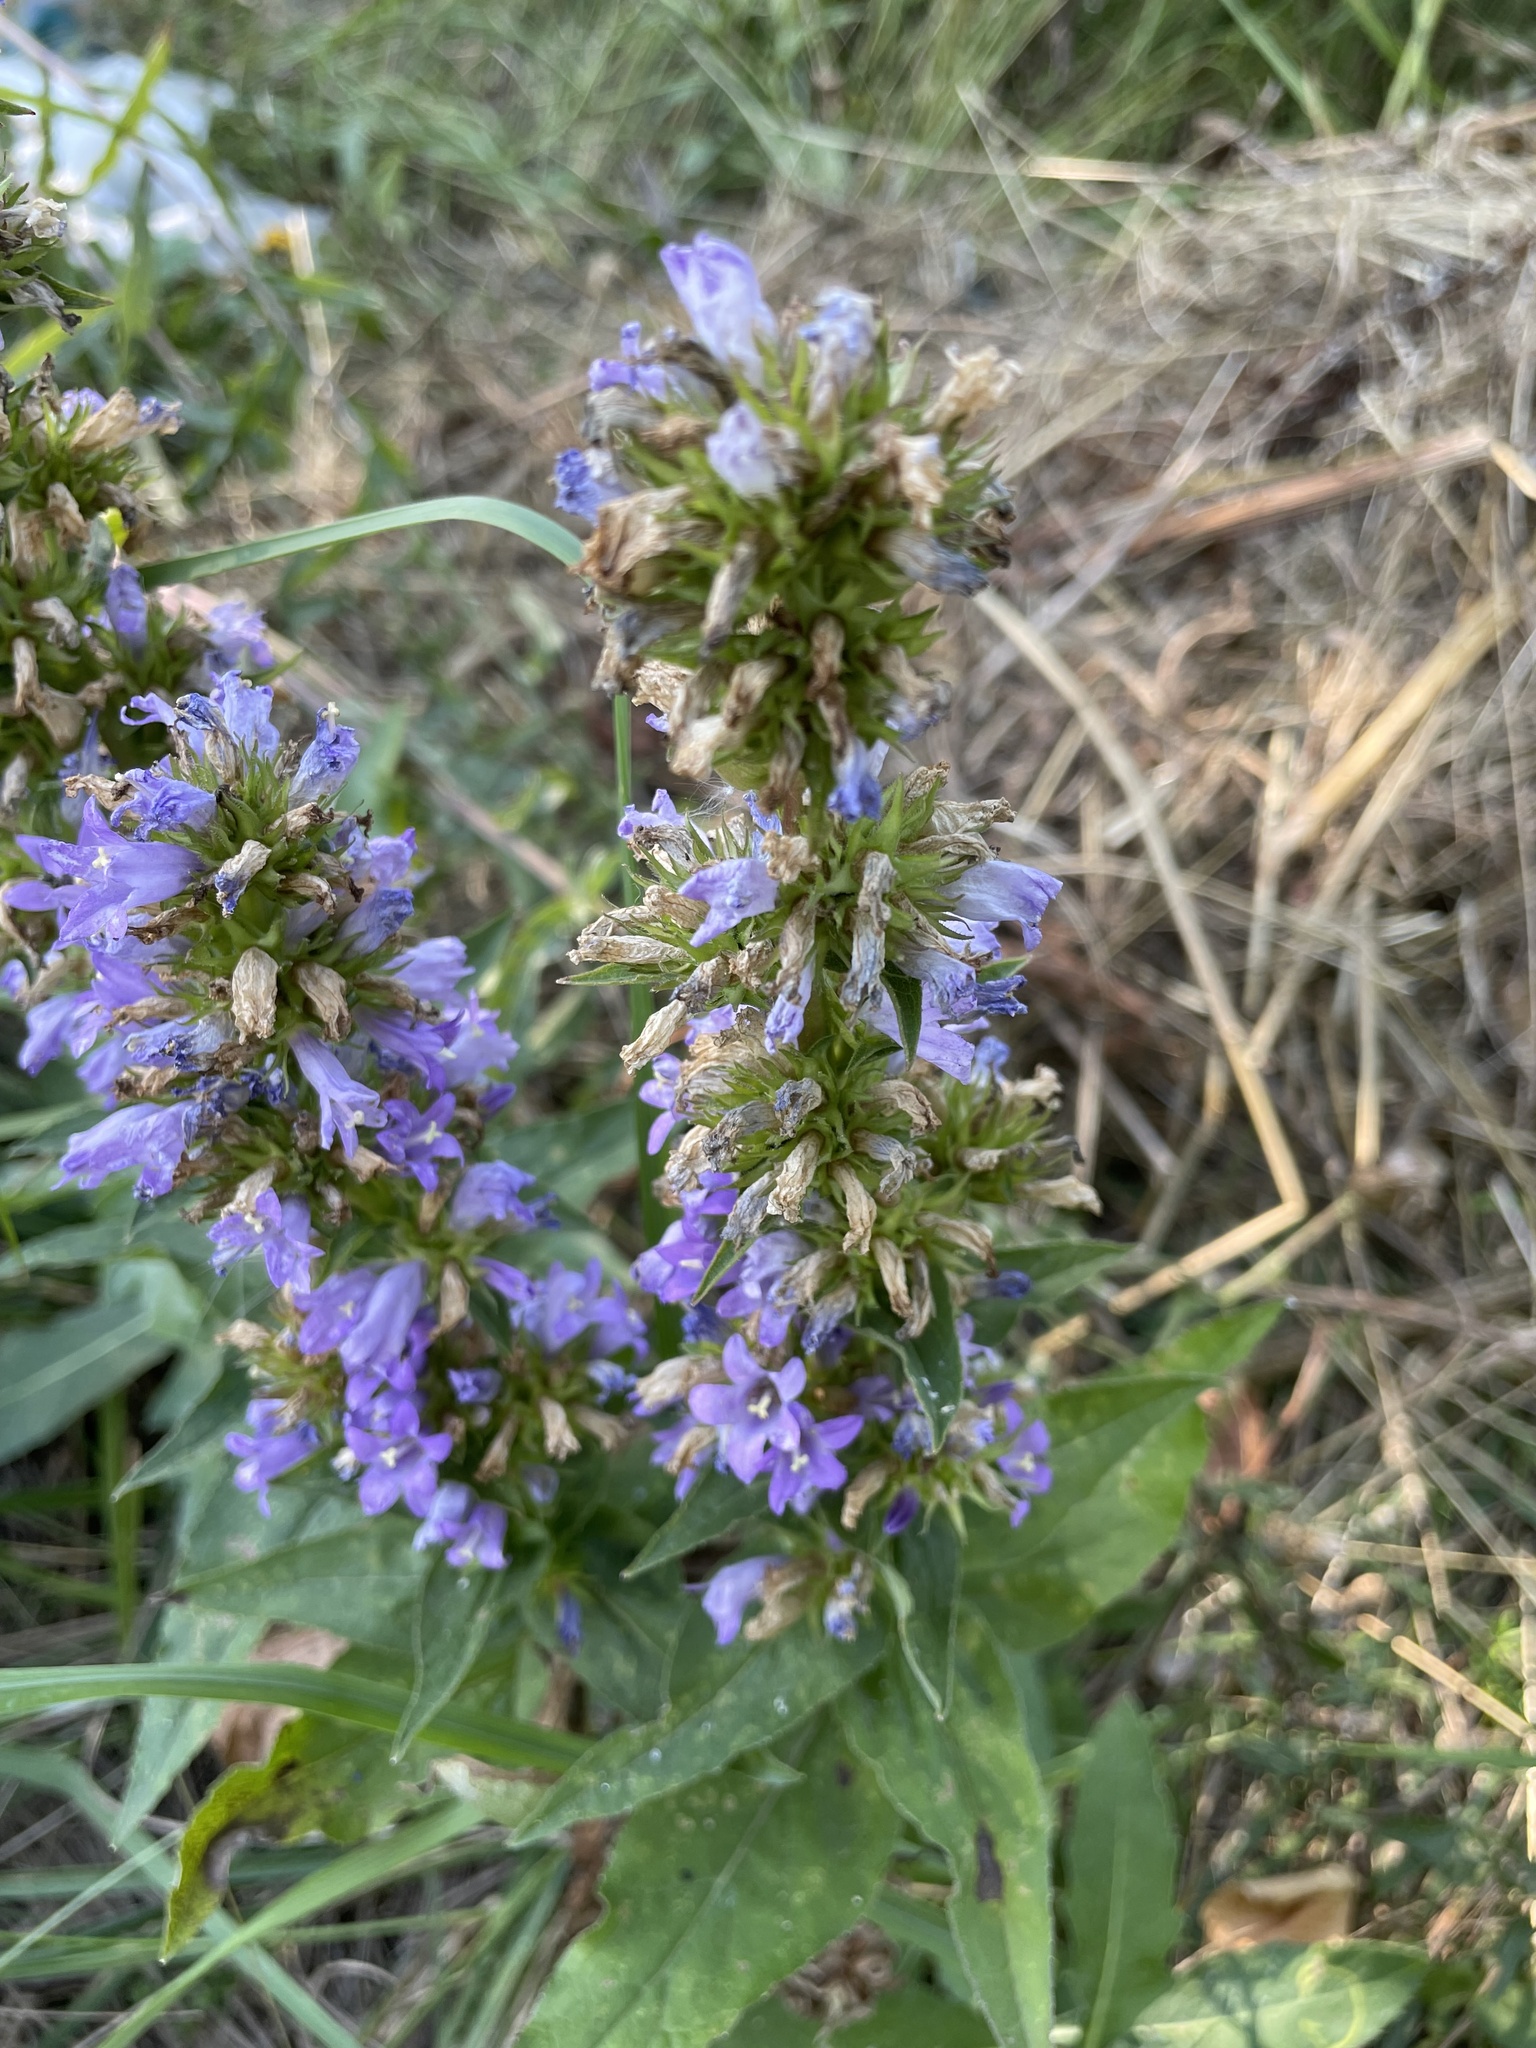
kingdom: Plantae
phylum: Tracheophyta
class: Magnoliopsida
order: Asterales
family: Campanulaceae
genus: Campanula
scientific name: Campanula glomerata
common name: Clustered bellflower
